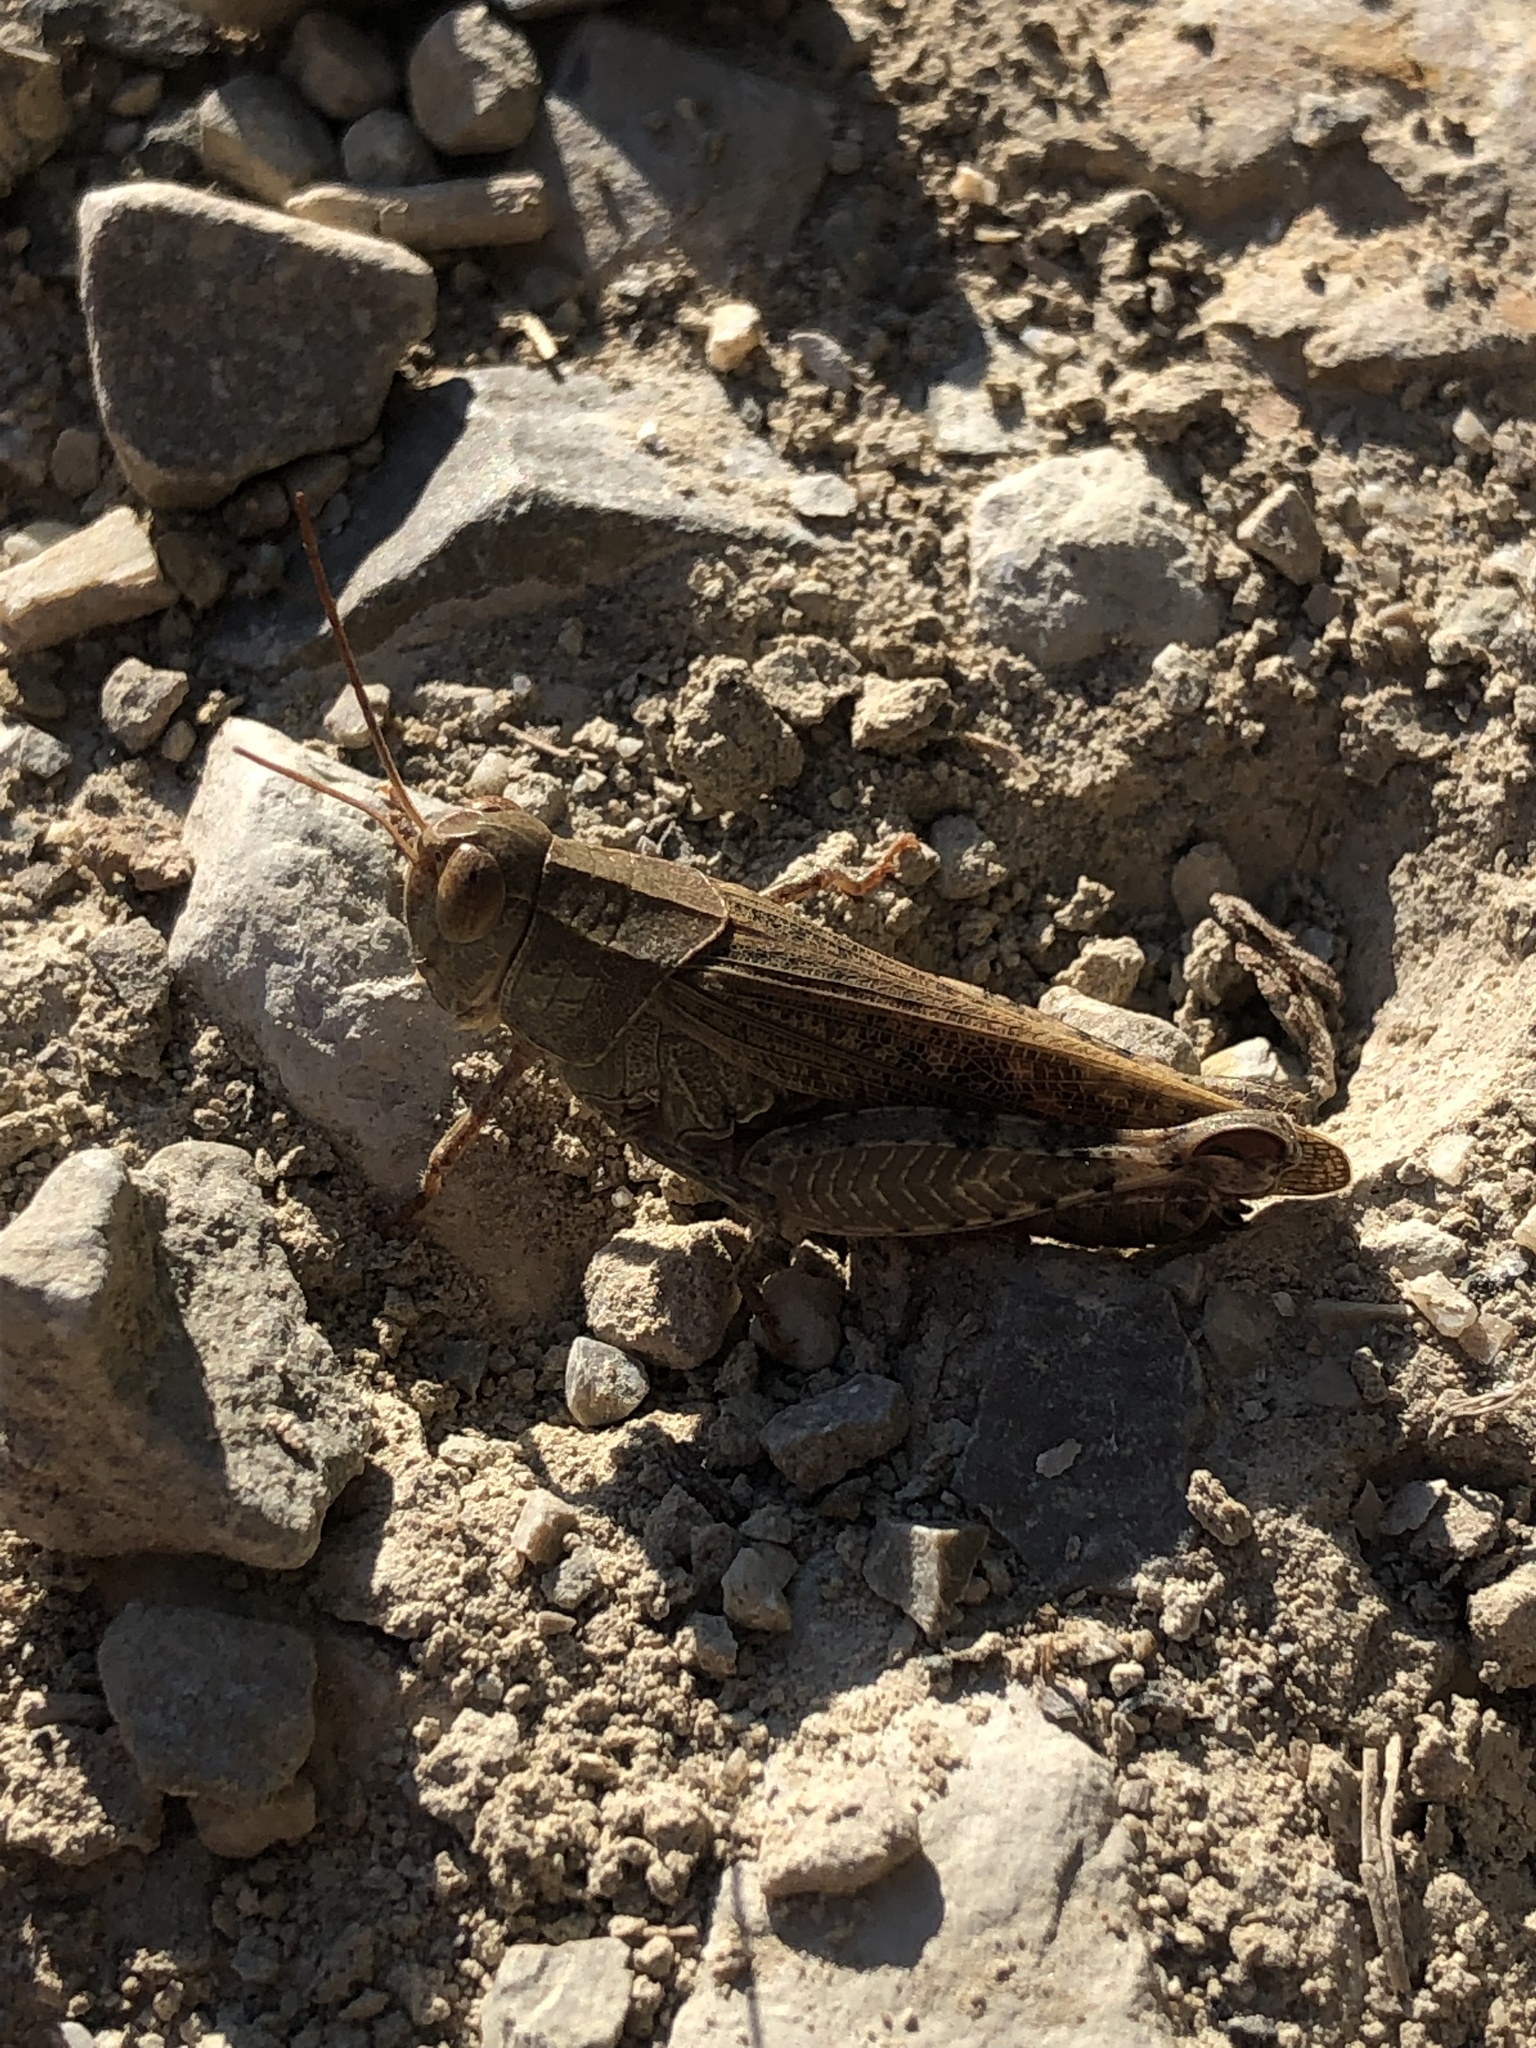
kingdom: Animalia
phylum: Arthropoda
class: Insecta
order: Orthoptera
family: Acrididae
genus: Calliptamus
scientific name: Calliptamus italicus
